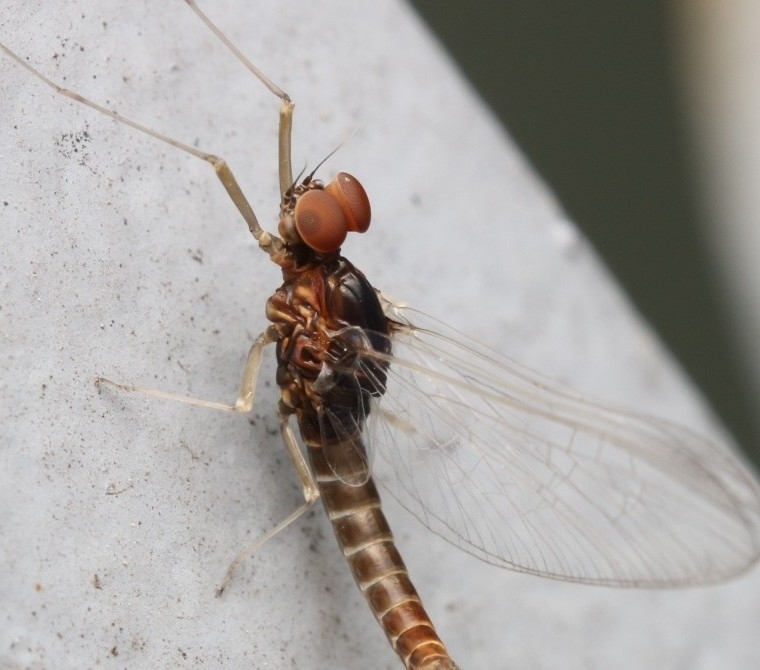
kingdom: Animalia
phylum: Arthropoda
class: Insecta
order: Ephemeroptera
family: Baetidae
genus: Baetis
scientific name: Baetis tricaudatus
